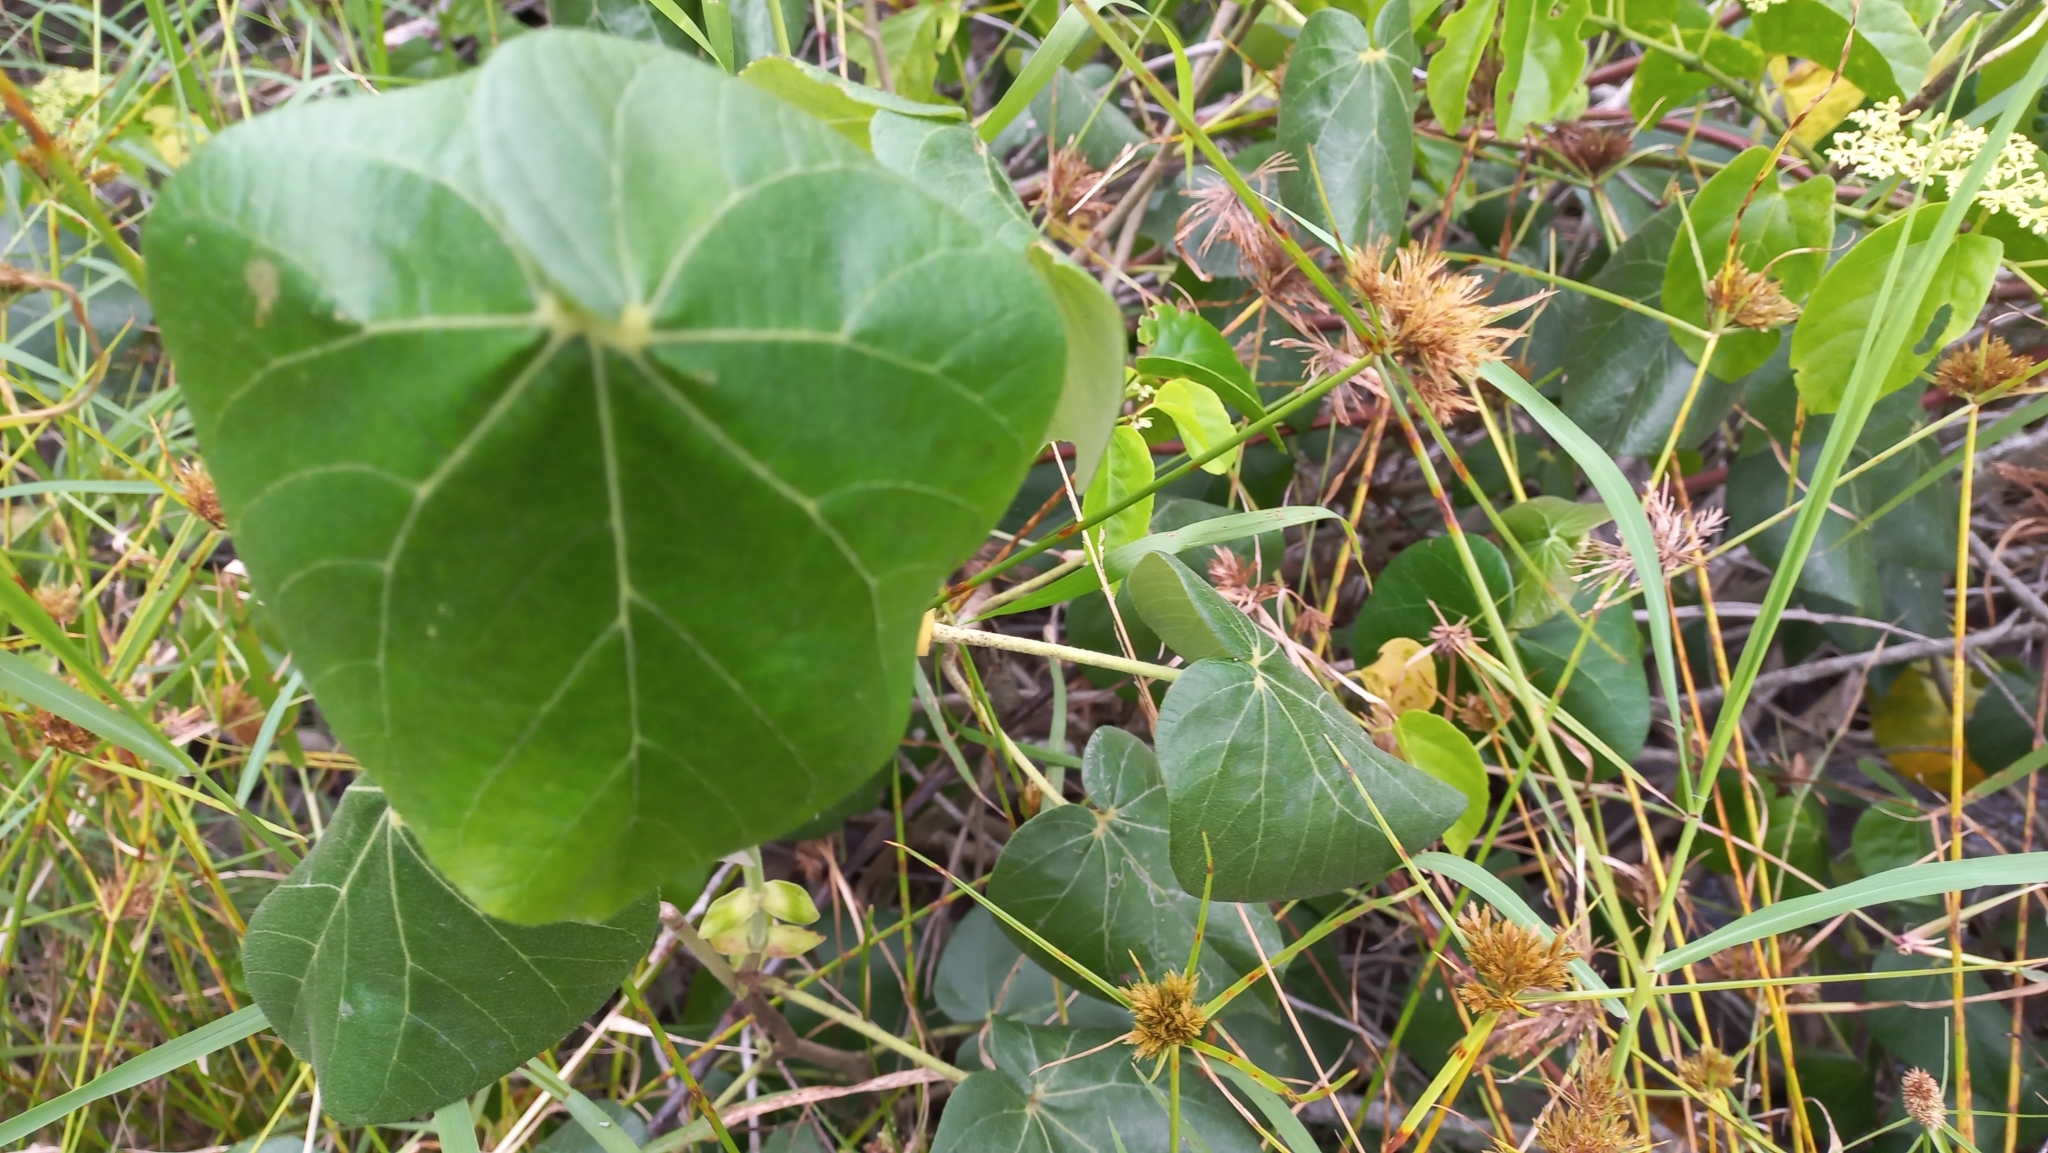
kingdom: Plantae
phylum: Tracheophyta
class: Magnoliopsida
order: Malvales
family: Malvaceae
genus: Talipariti
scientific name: Talipariti pernambucense
